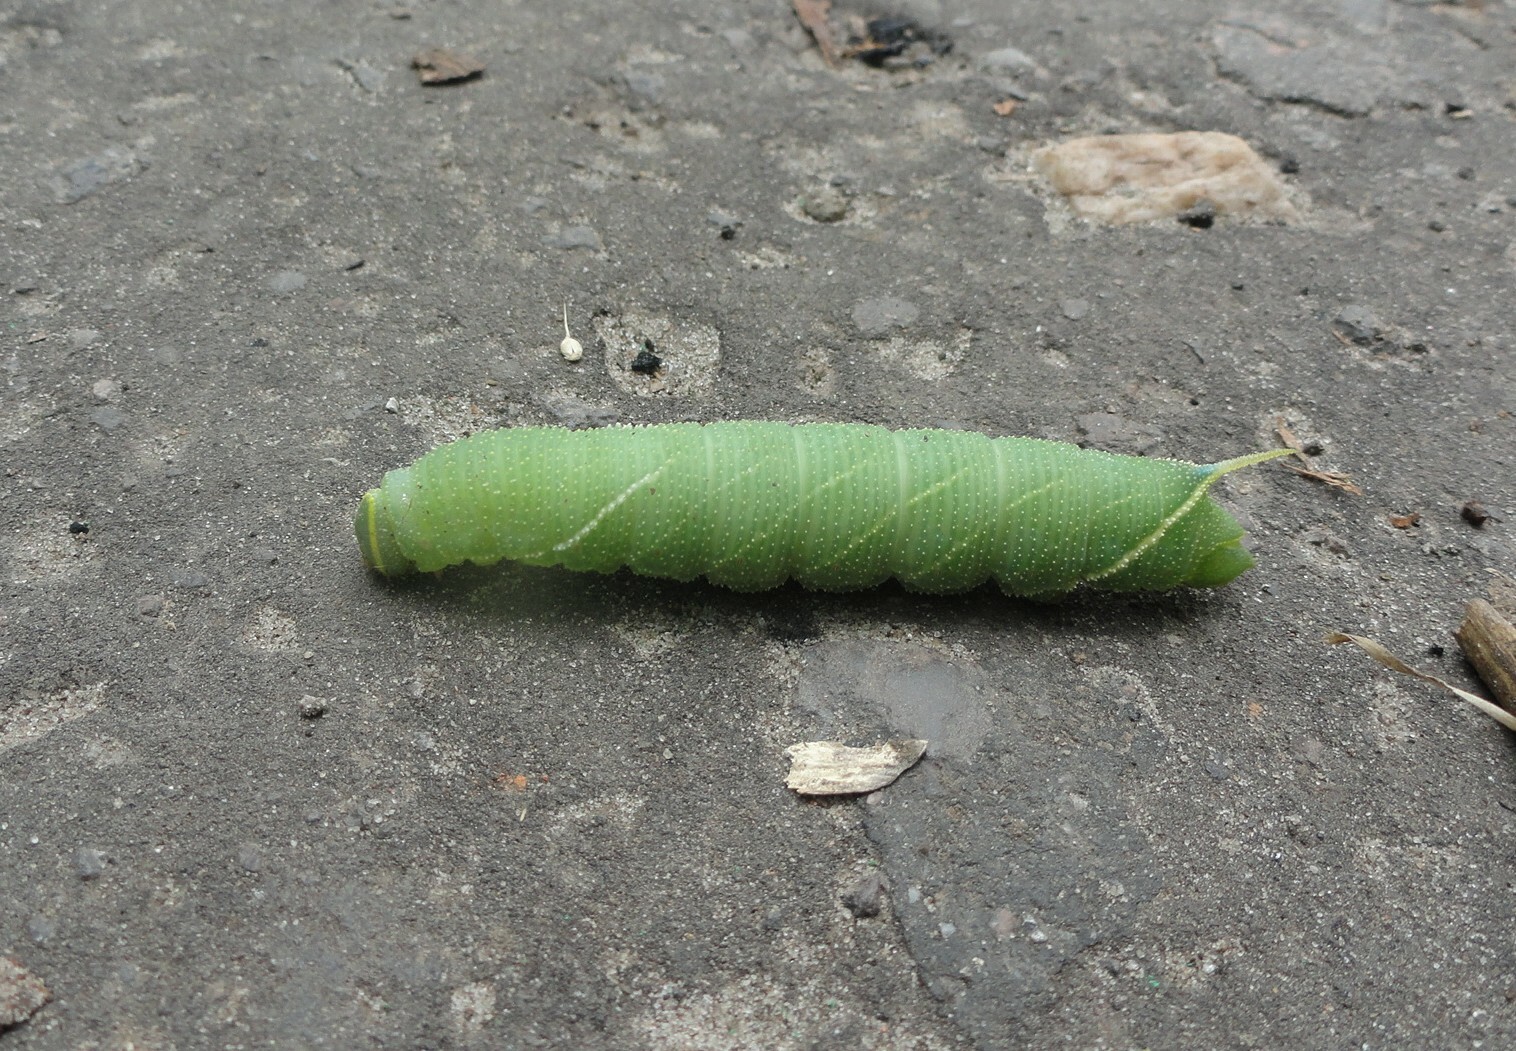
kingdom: Animalia
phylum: Arthropoda
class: Insecta
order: Lepidoptera
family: Sphingidae
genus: Laothoe
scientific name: Laothoe populi
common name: Poplar hawk-moth
